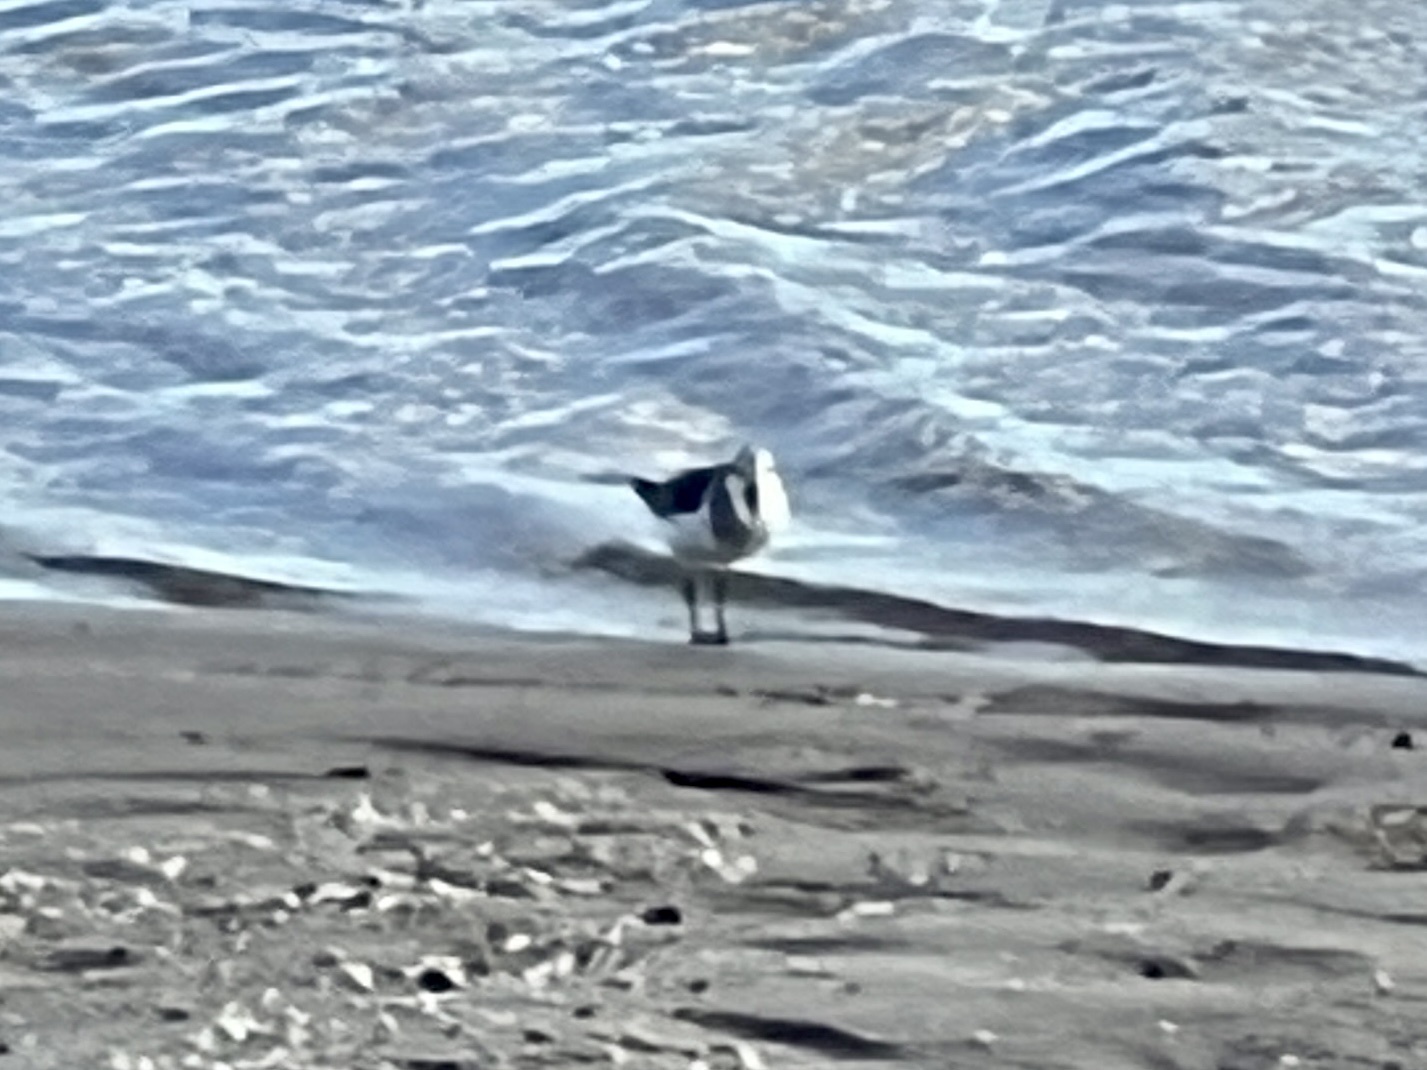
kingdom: Animalia
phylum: Chordata
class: Aves
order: Charadriiformes
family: Scolopacidae
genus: Calidris
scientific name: Calidris alba
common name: Sanderling
